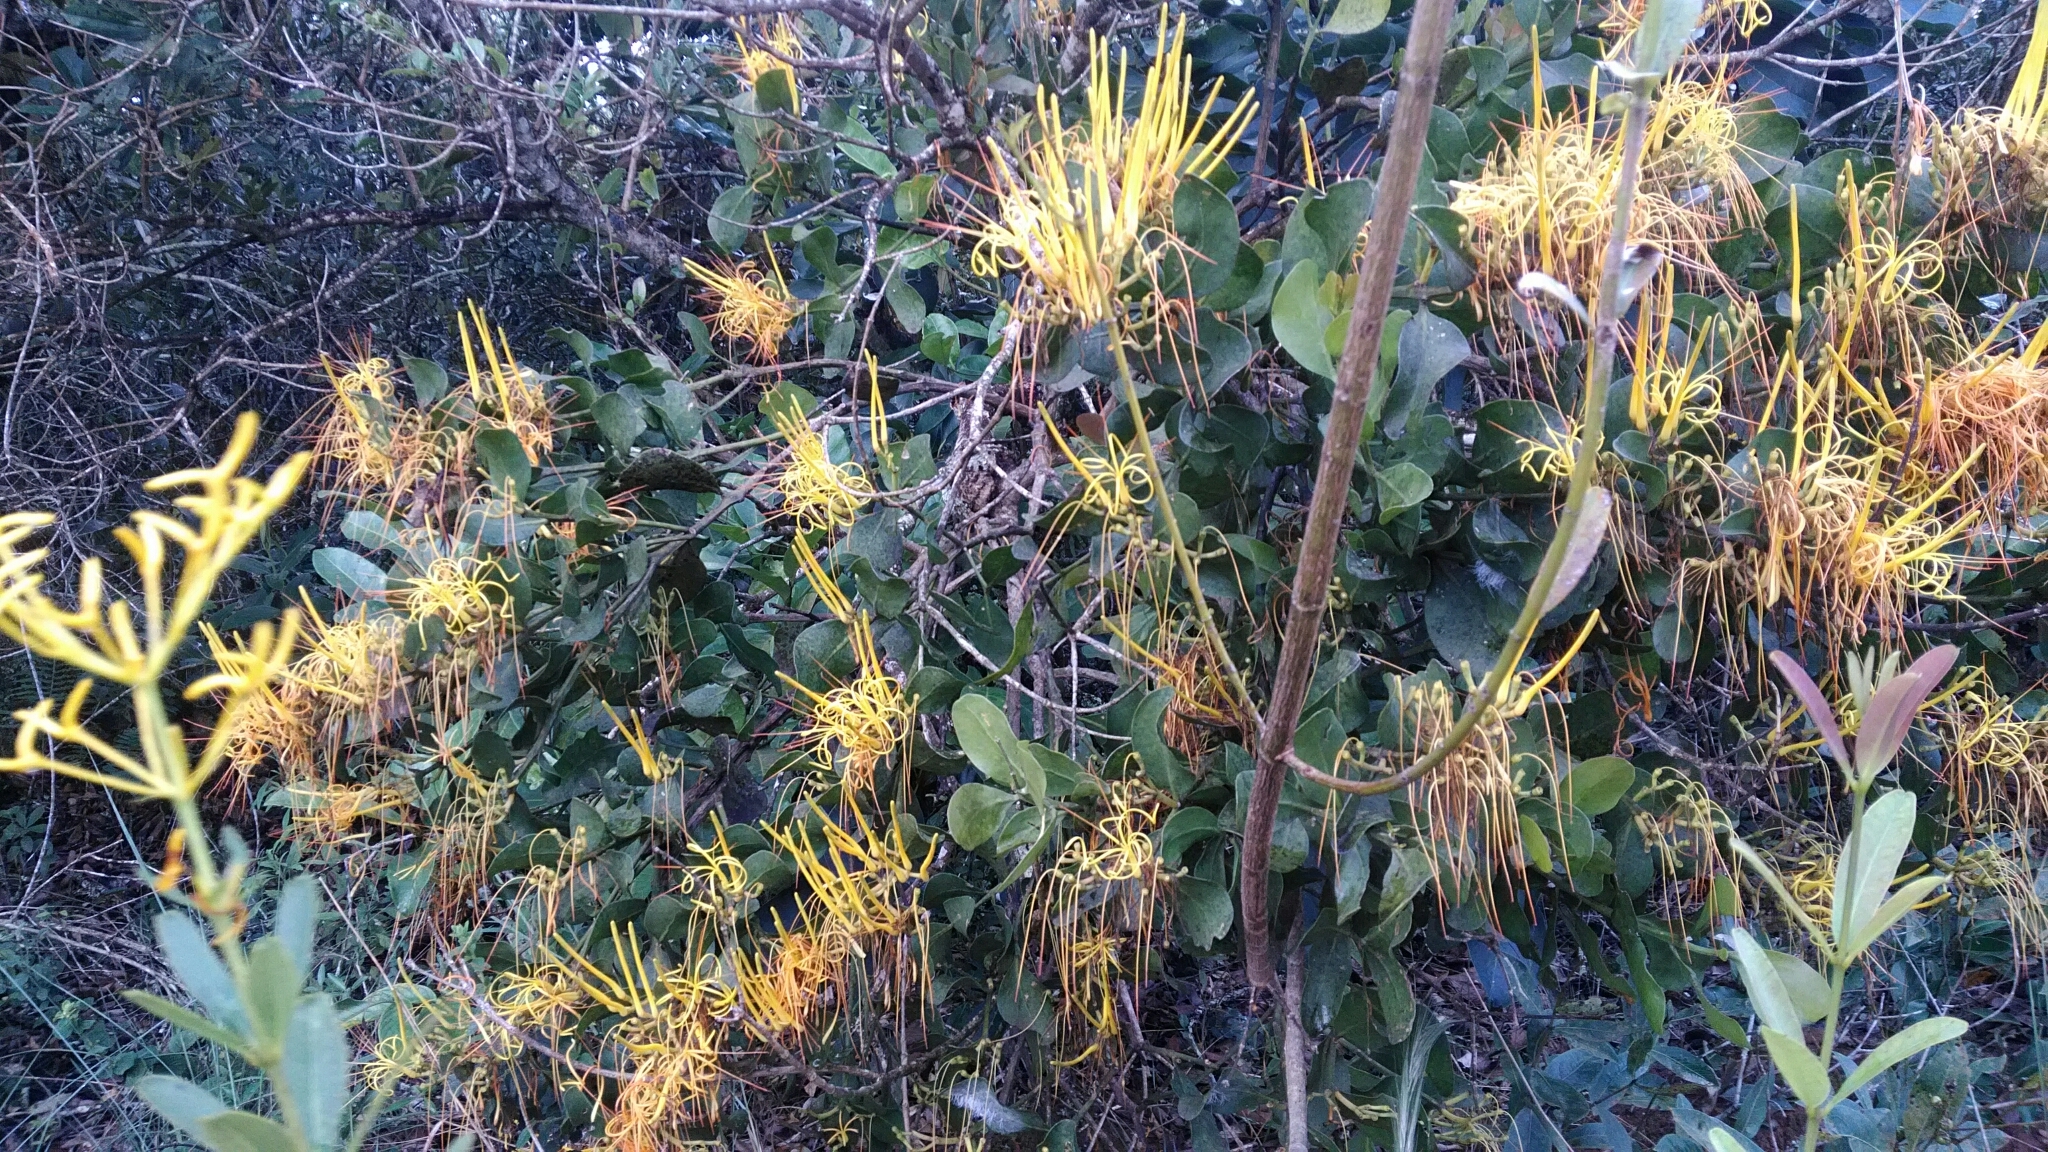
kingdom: Plantae
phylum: Tracheophyta
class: Magnoliopsida
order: Santalales
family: Loranthaceae
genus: Psittacanthus
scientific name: Psittacanthus robustus
